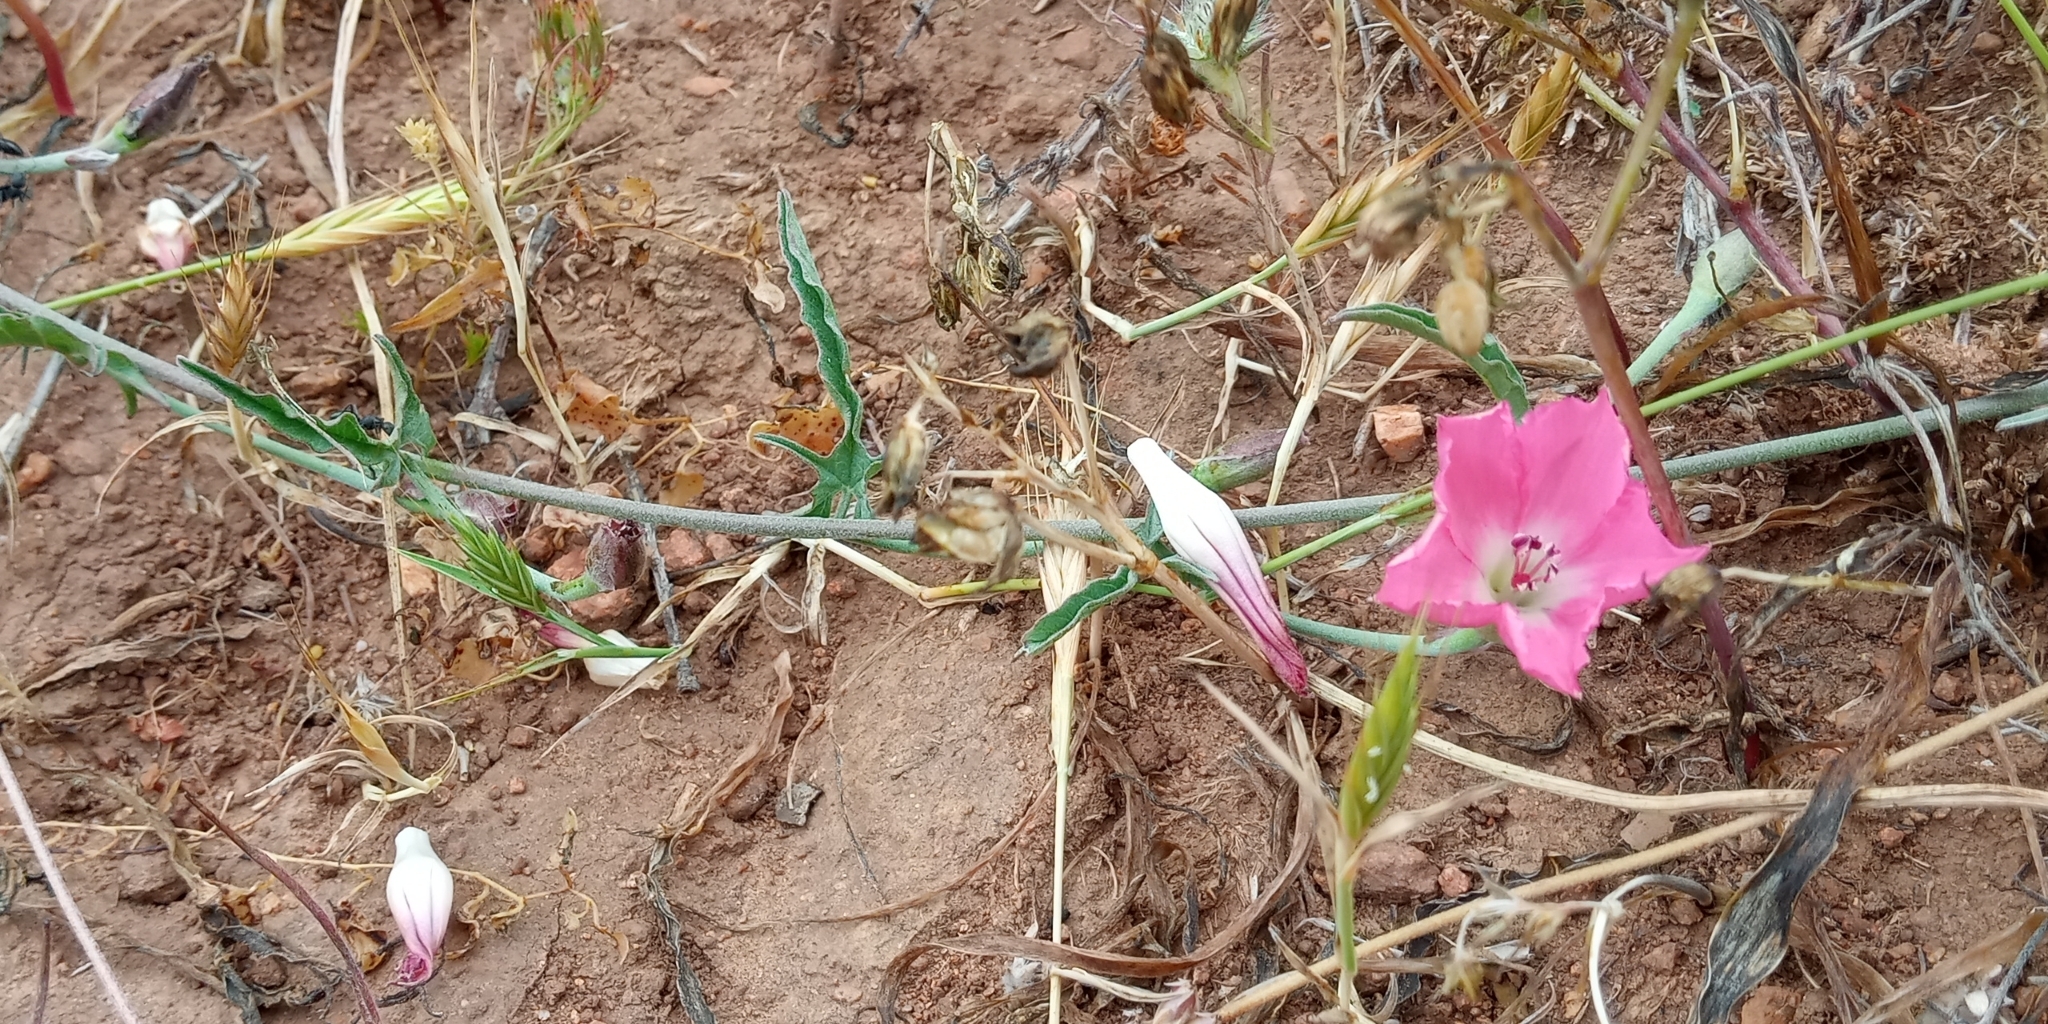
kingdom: Plantae
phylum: Tracheophyta
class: Magnoliopsida
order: Solanales
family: Convolvulaceae
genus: Convolvulus
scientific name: Convolvulus chilensis
